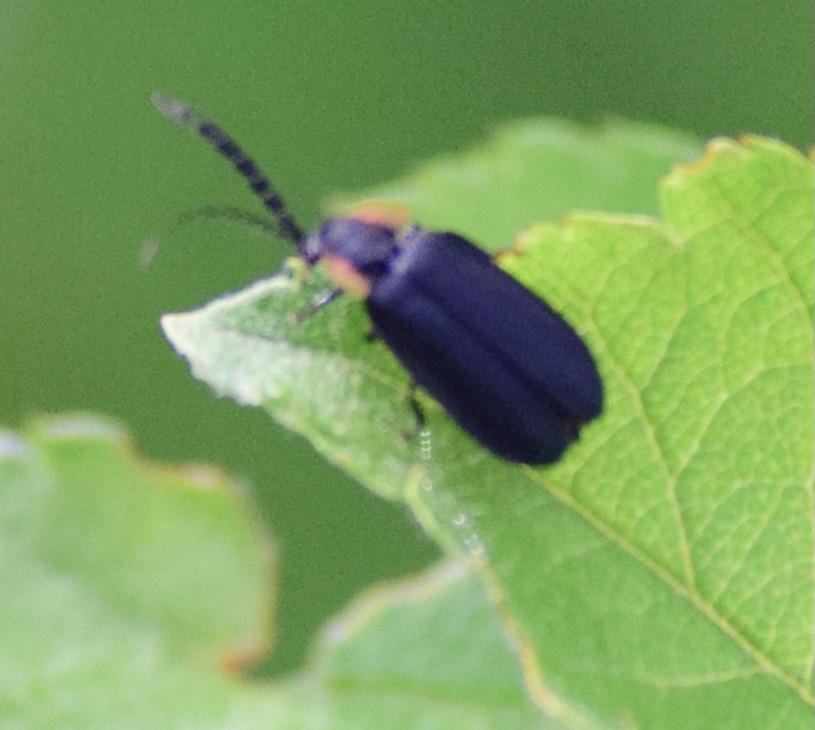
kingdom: Animalia
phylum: Arthropoda
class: Insecta
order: Coleoptera
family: Lampyridae
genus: Lucidota
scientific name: Lucidota atra
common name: Black firefly
